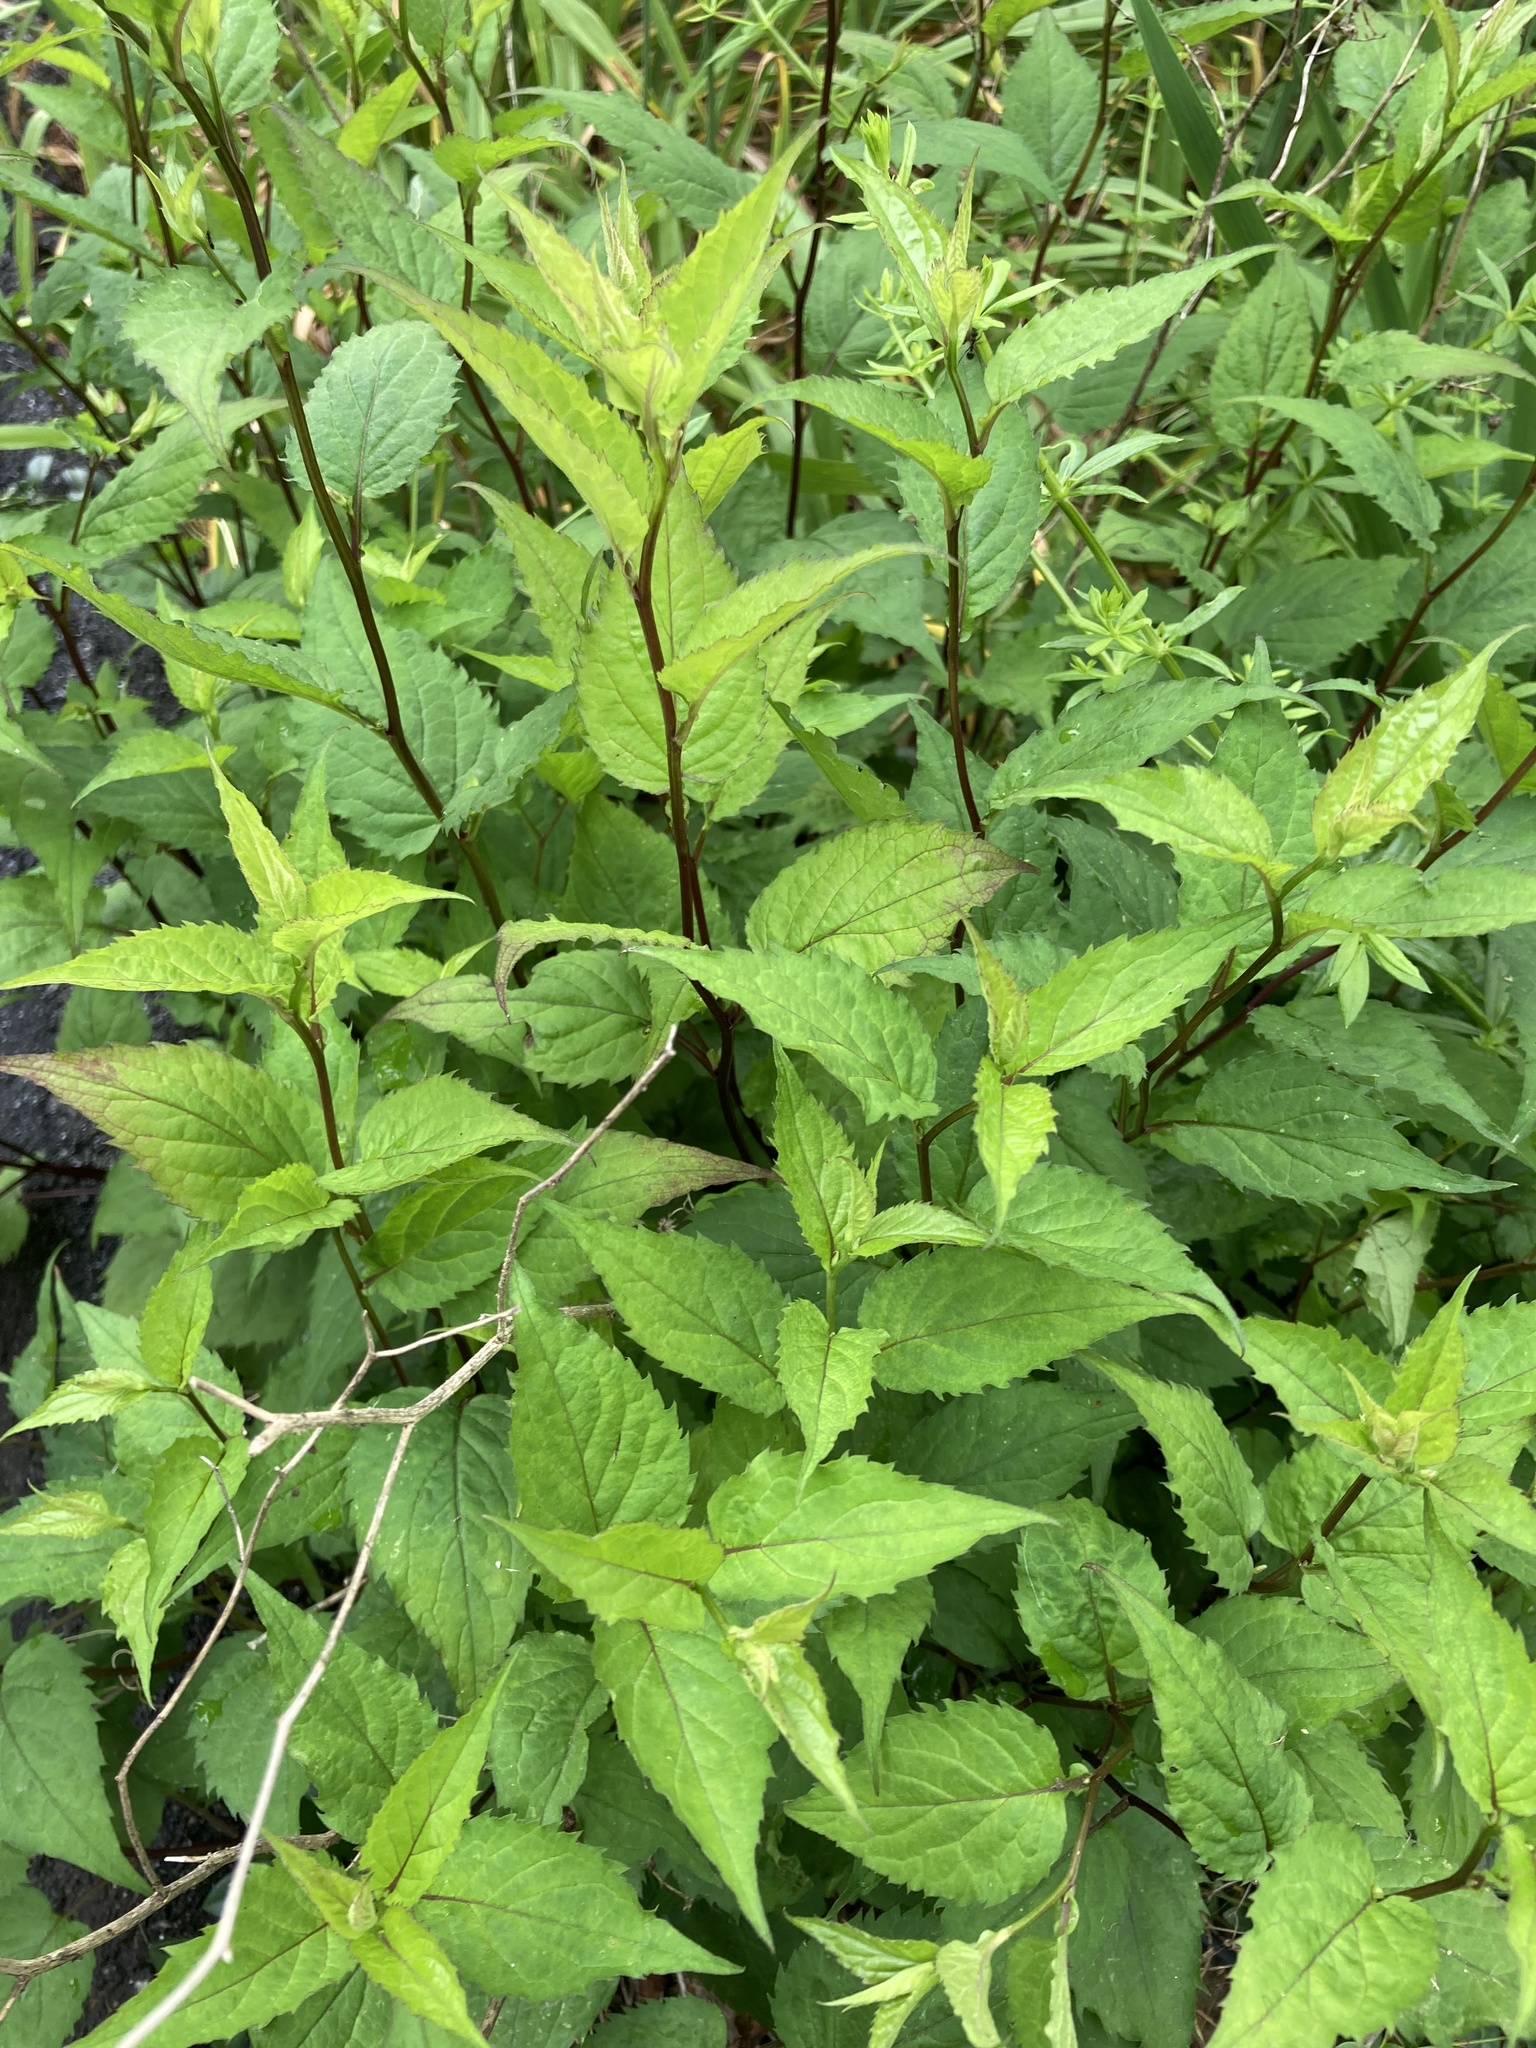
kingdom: Plantae
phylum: Tracheophyta
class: Magnoliopsida
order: Asterales
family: Asteraceae
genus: Eurybia
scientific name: Eurybia divaricata
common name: White wood aster
